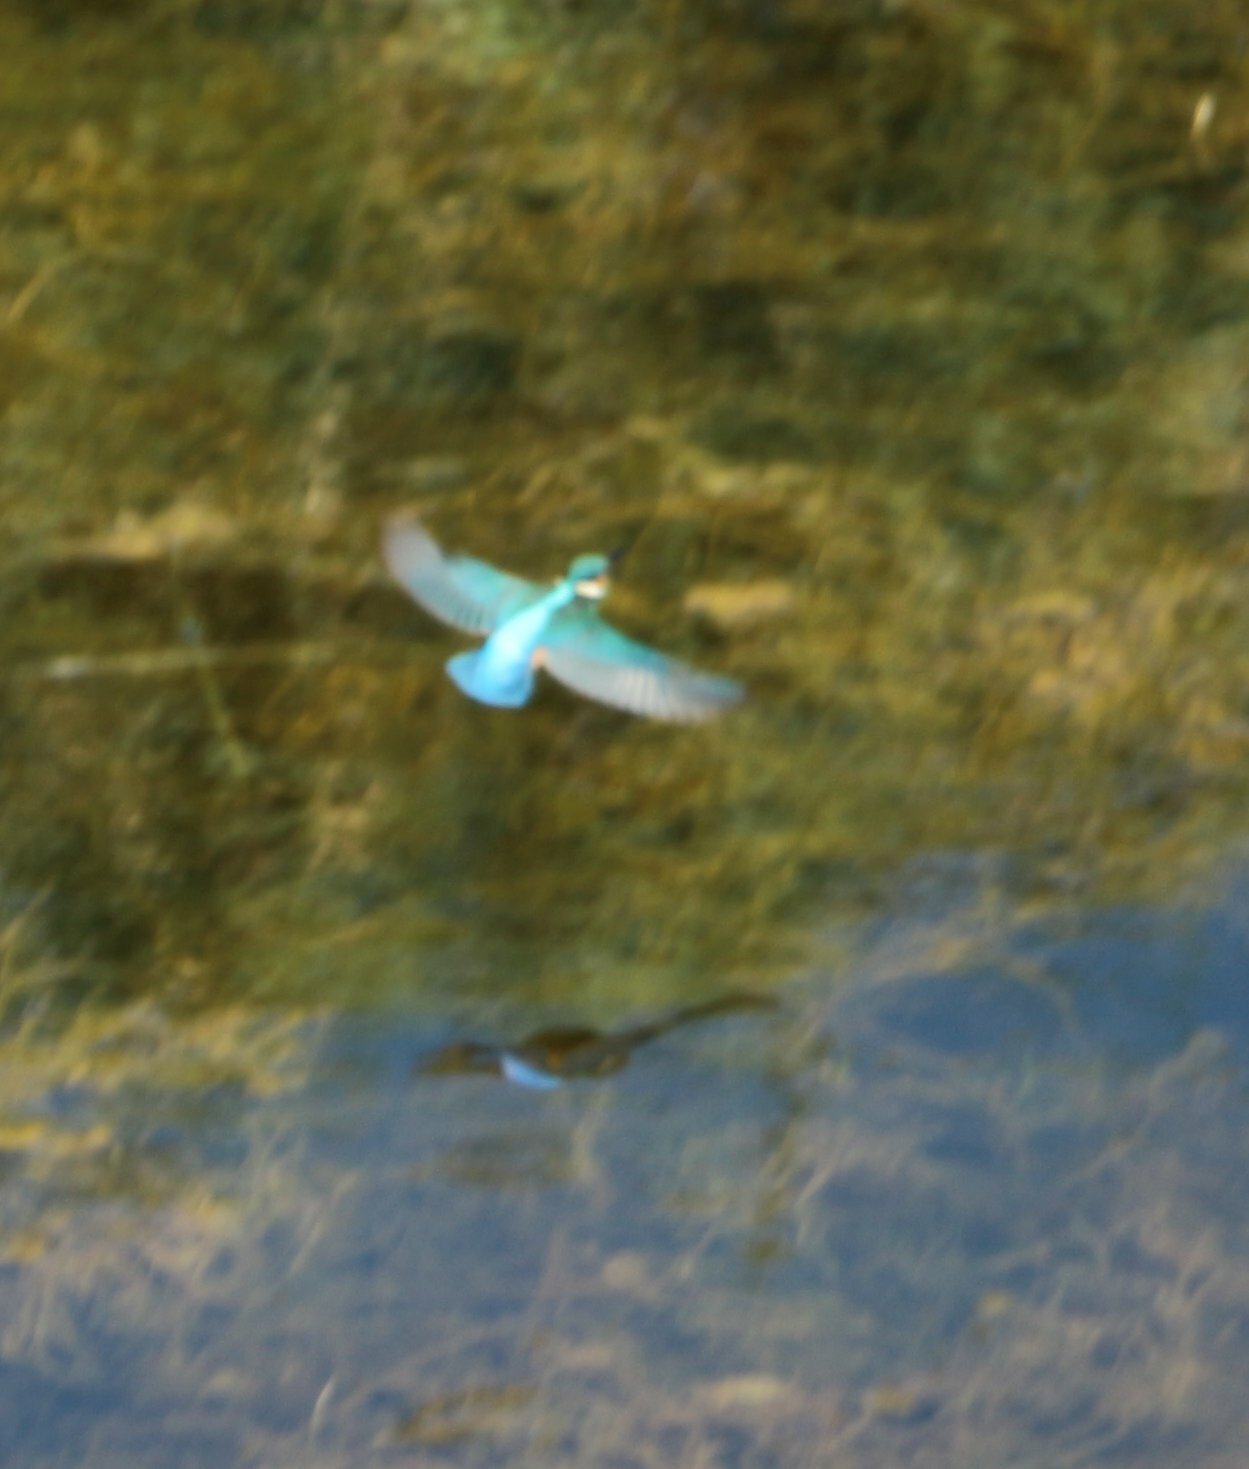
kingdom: Animalia
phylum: Chordata
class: Aves
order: Coraciiformes
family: Alcedinidae
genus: Alcedo
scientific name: Alcedo atthis
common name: Common kingfisher
